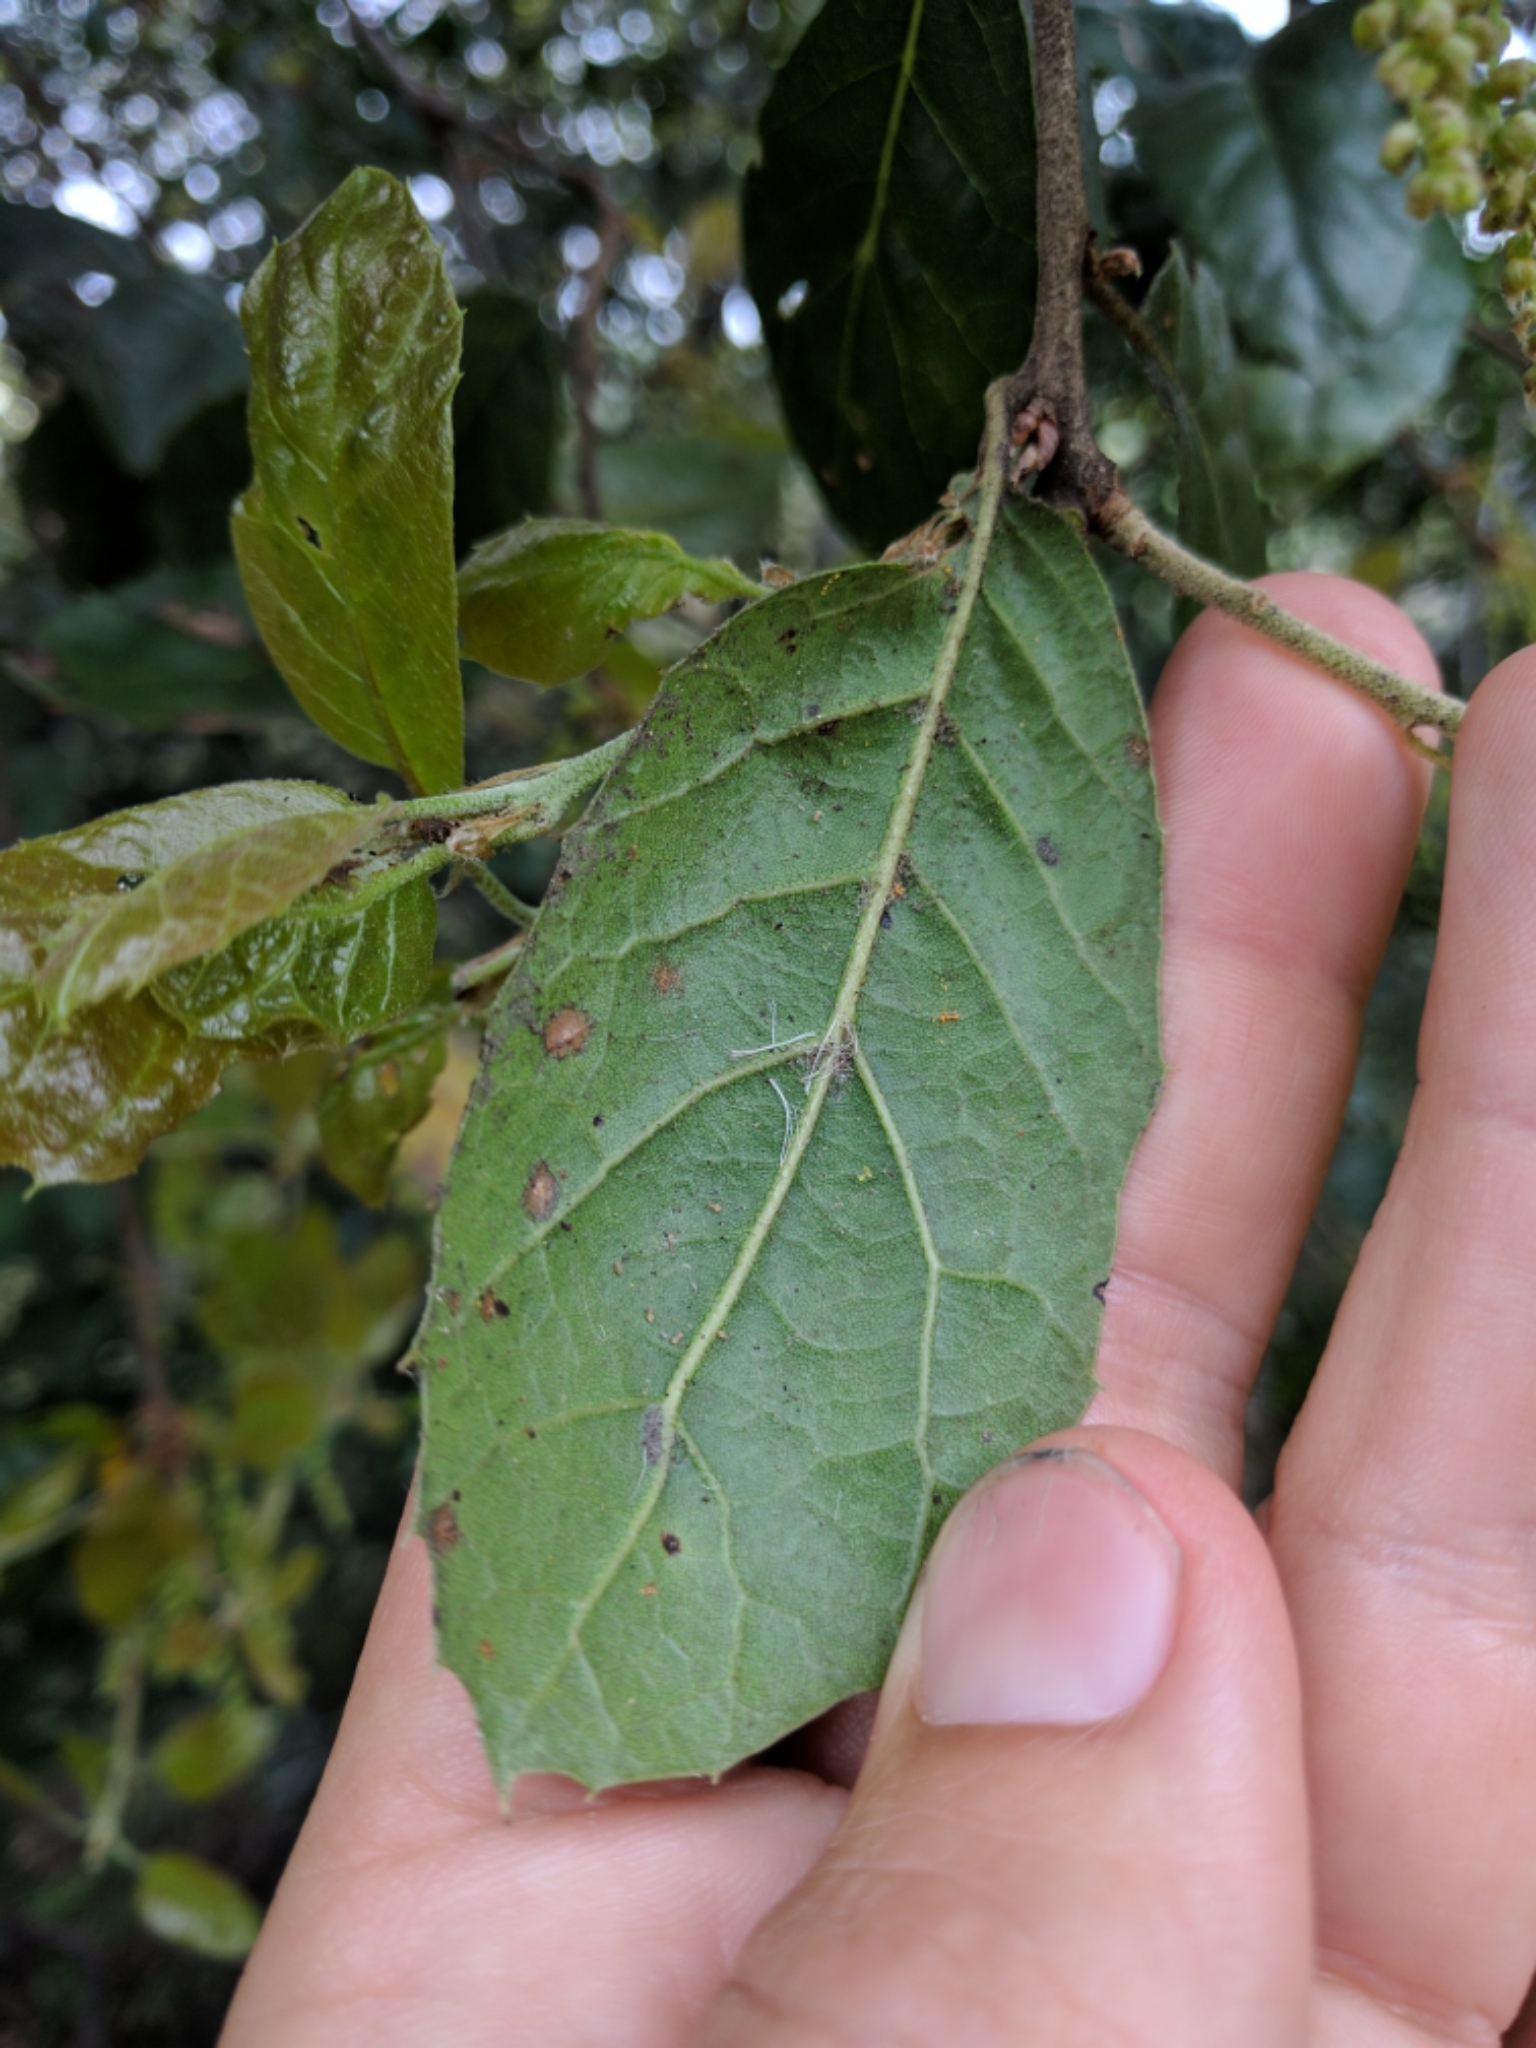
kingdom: Plantae
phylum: Tracheophyta
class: Magnoliopsida
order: Fagales
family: Fagaceae
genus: Quercus
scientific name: Quercus agrifolia
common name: California live oak
